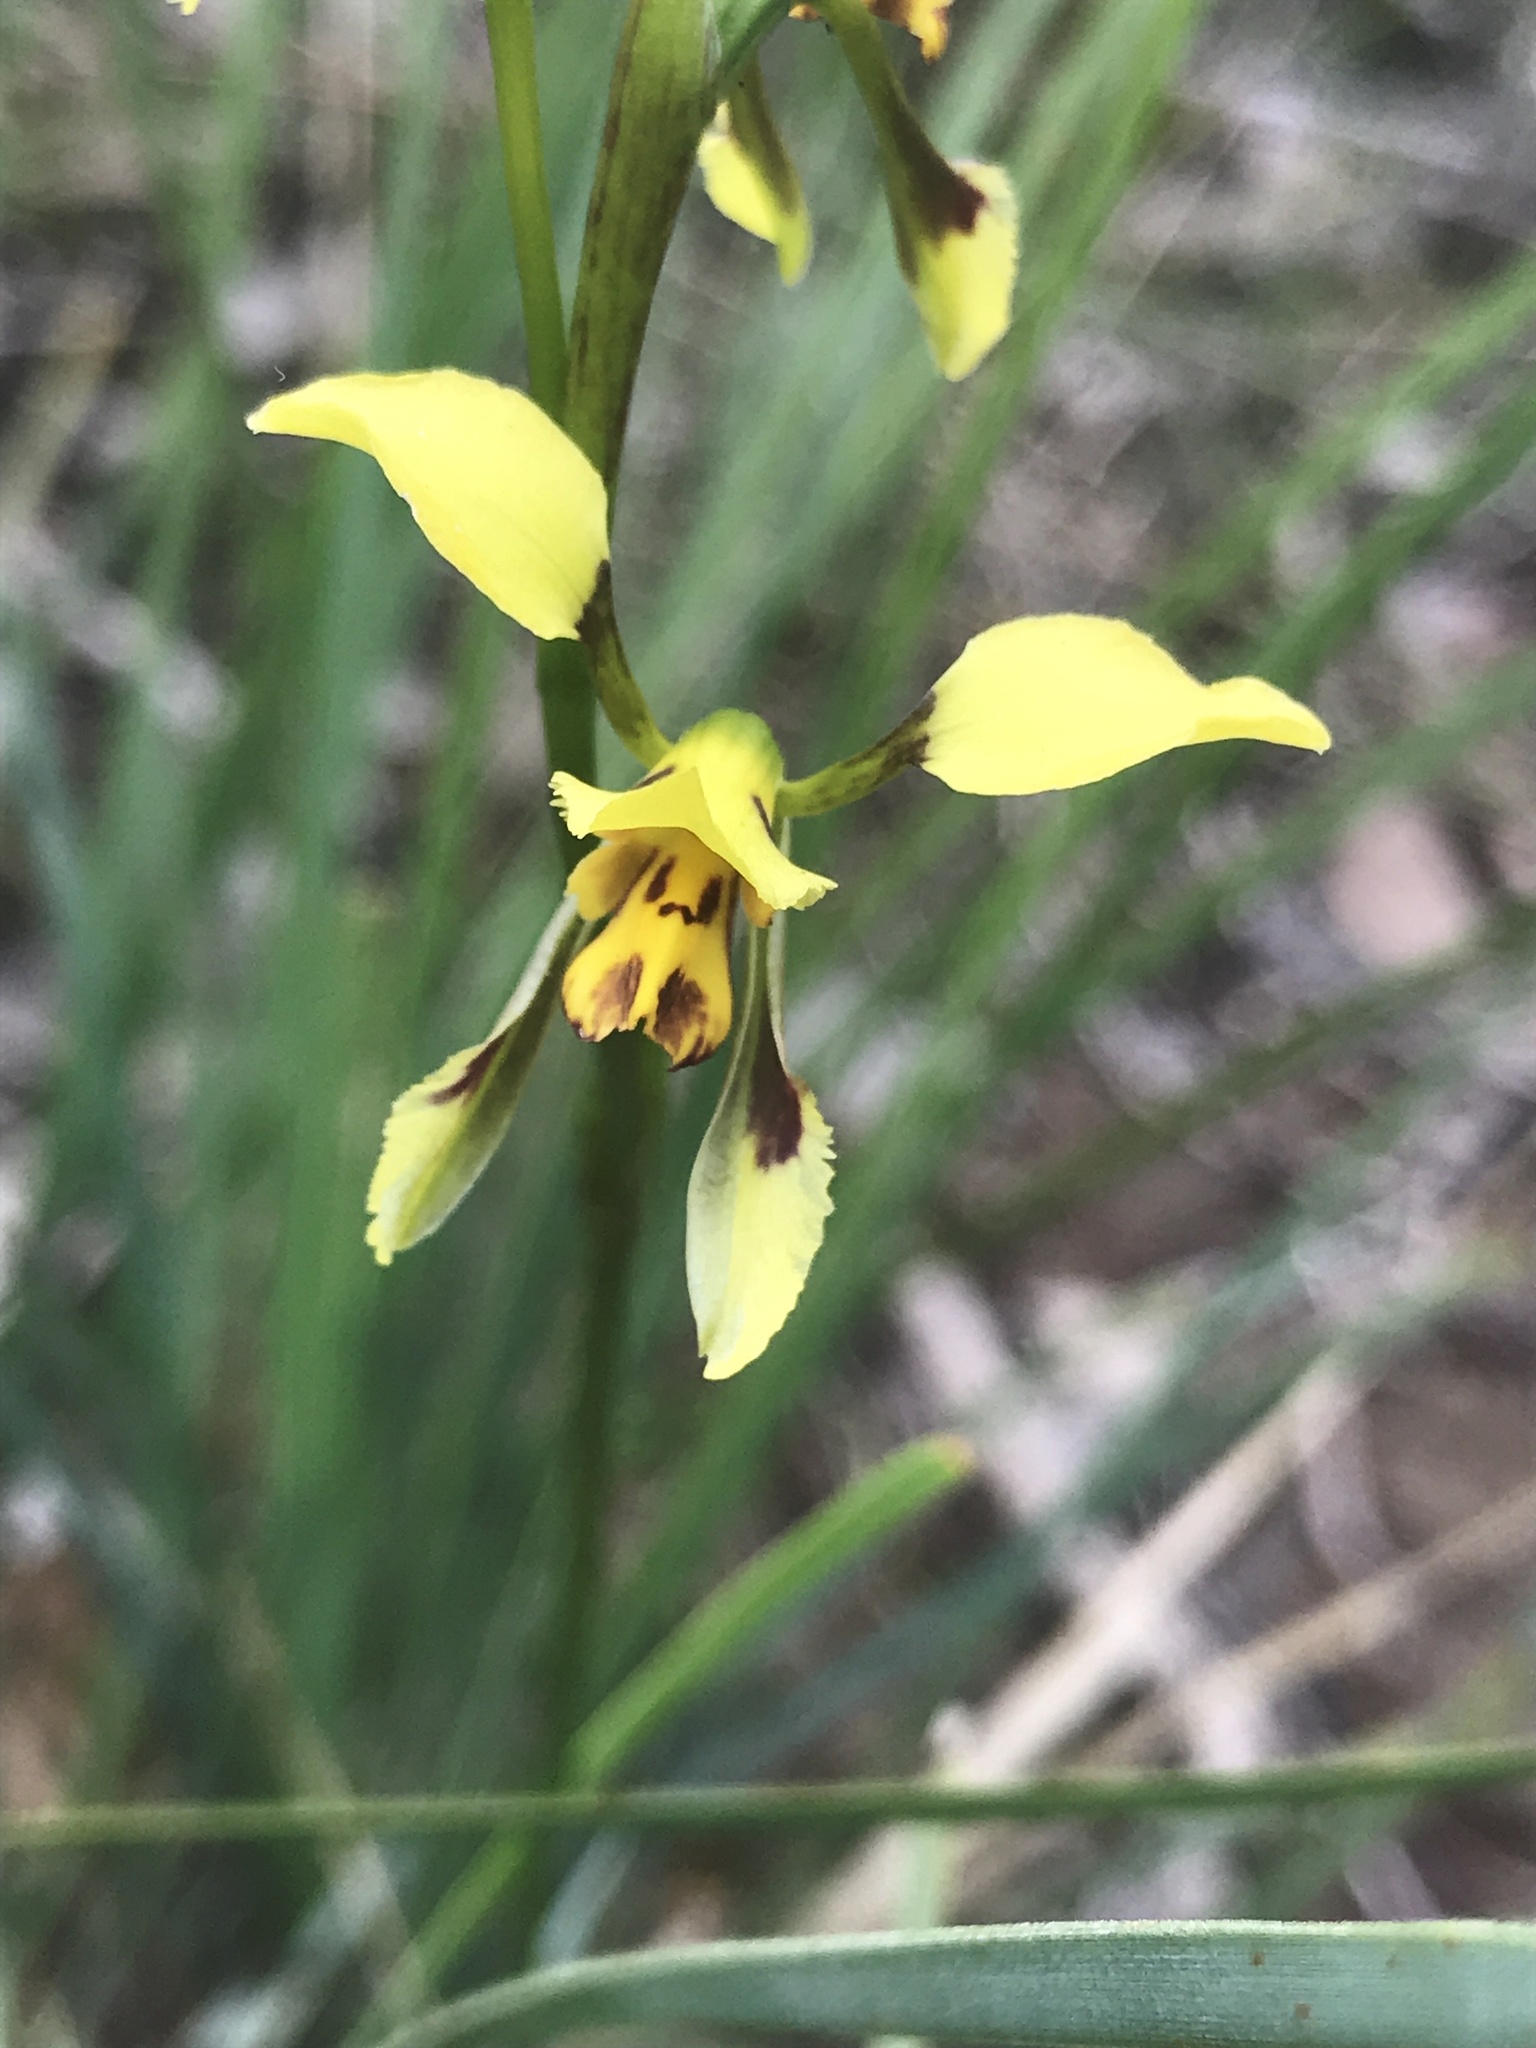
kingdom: Plantae
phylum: Tracheophyta
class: Liliopsida
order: Asparagales
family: Orchidaceae
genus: Diuris
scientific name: Diuris sulphurea
